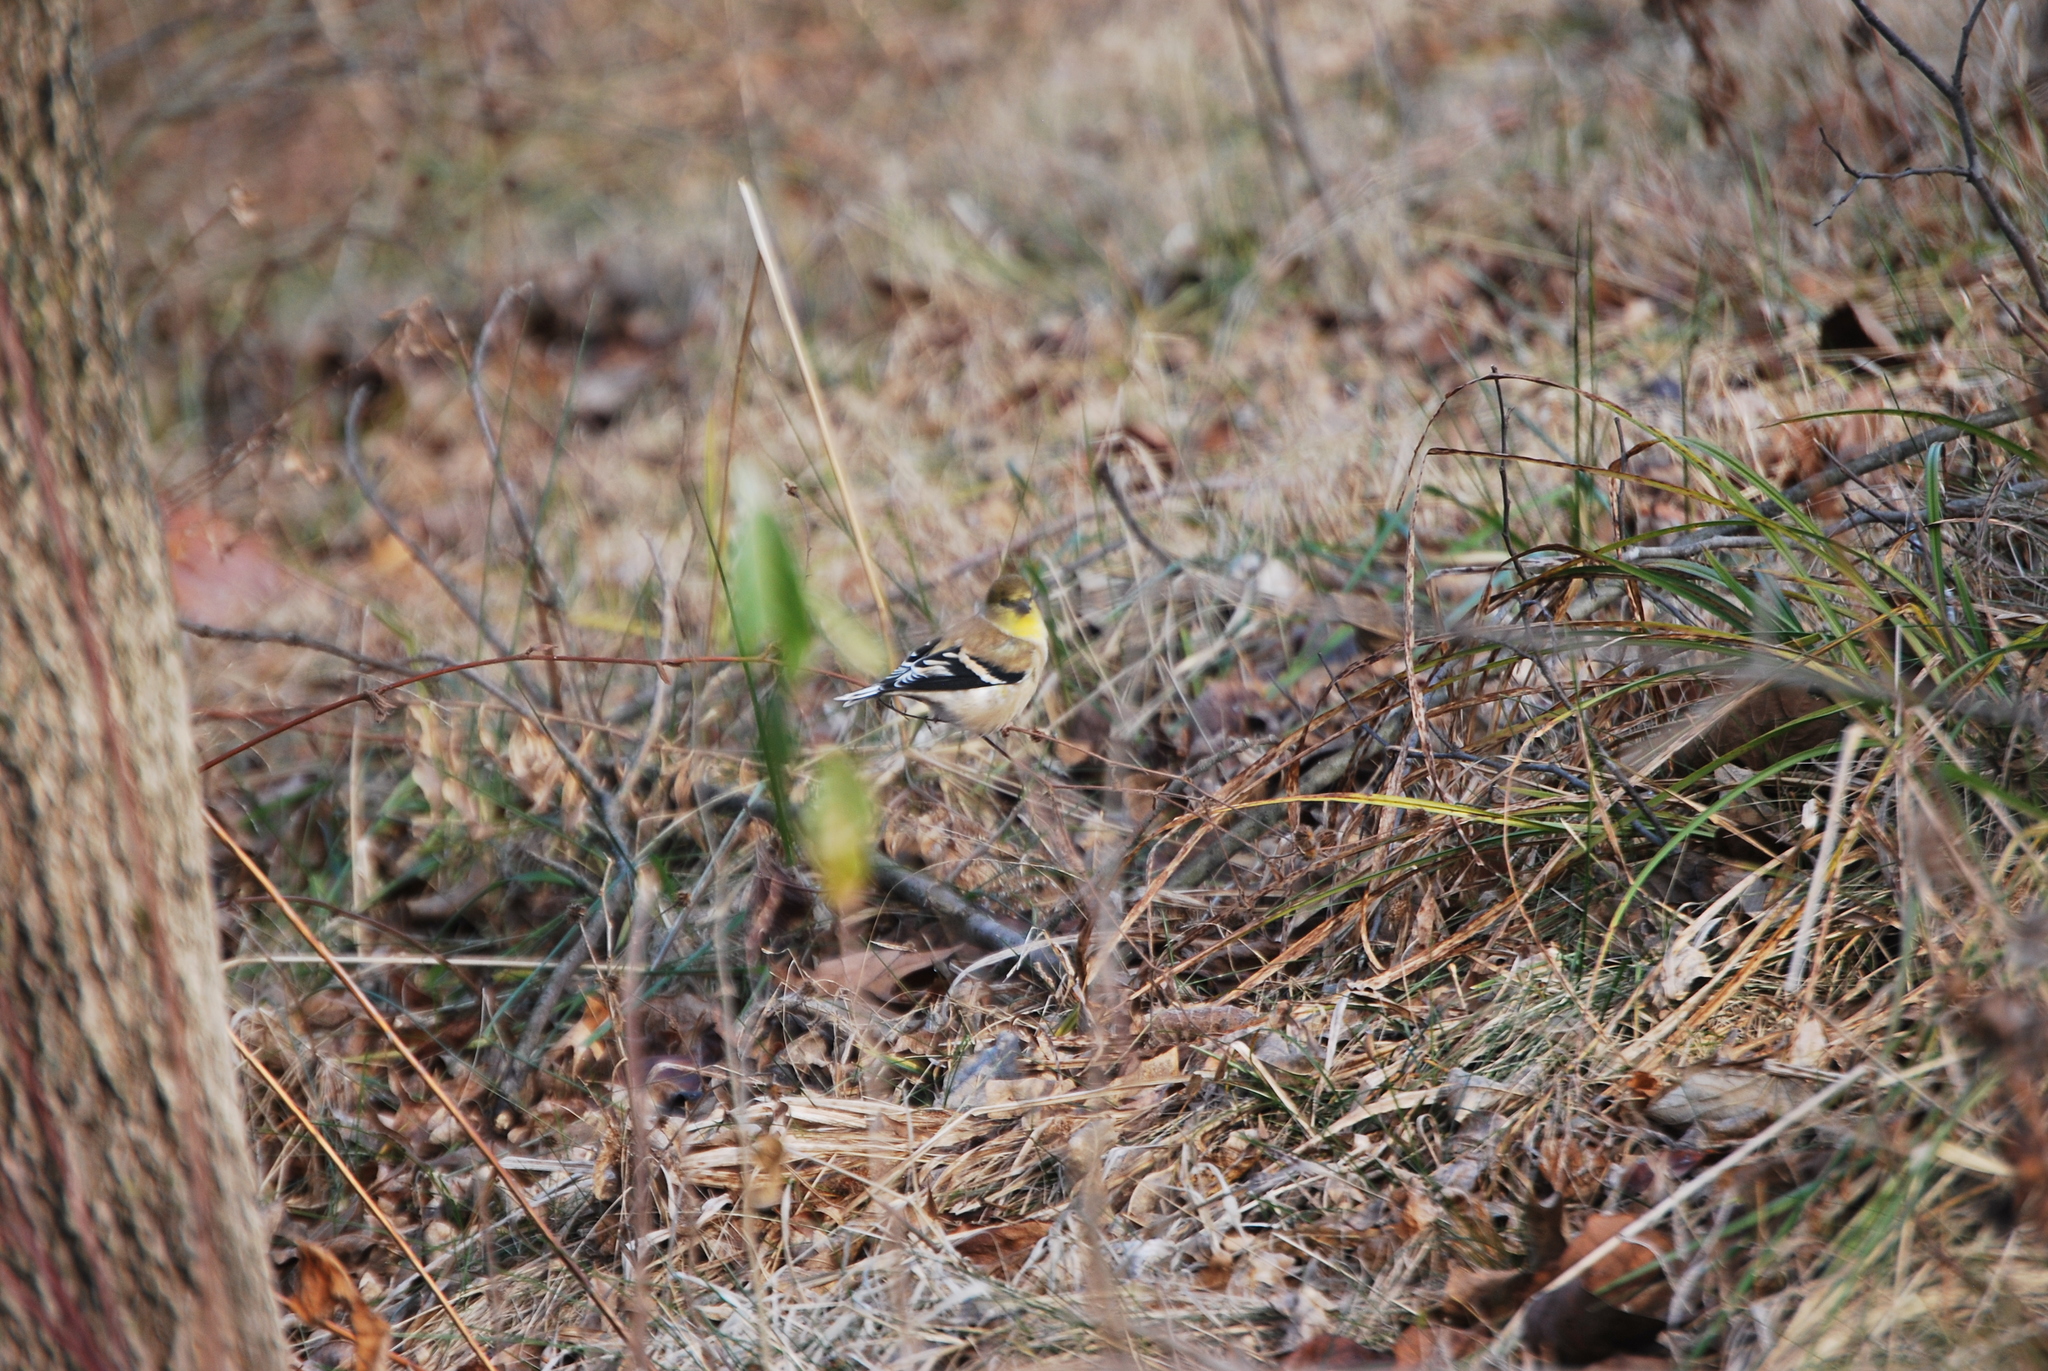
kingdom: Animalia
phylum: Chordata
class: Aves
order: Passeriformes
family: Fringillidae
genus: Spinus
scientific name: Spinus tristis
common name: American goldfinch
